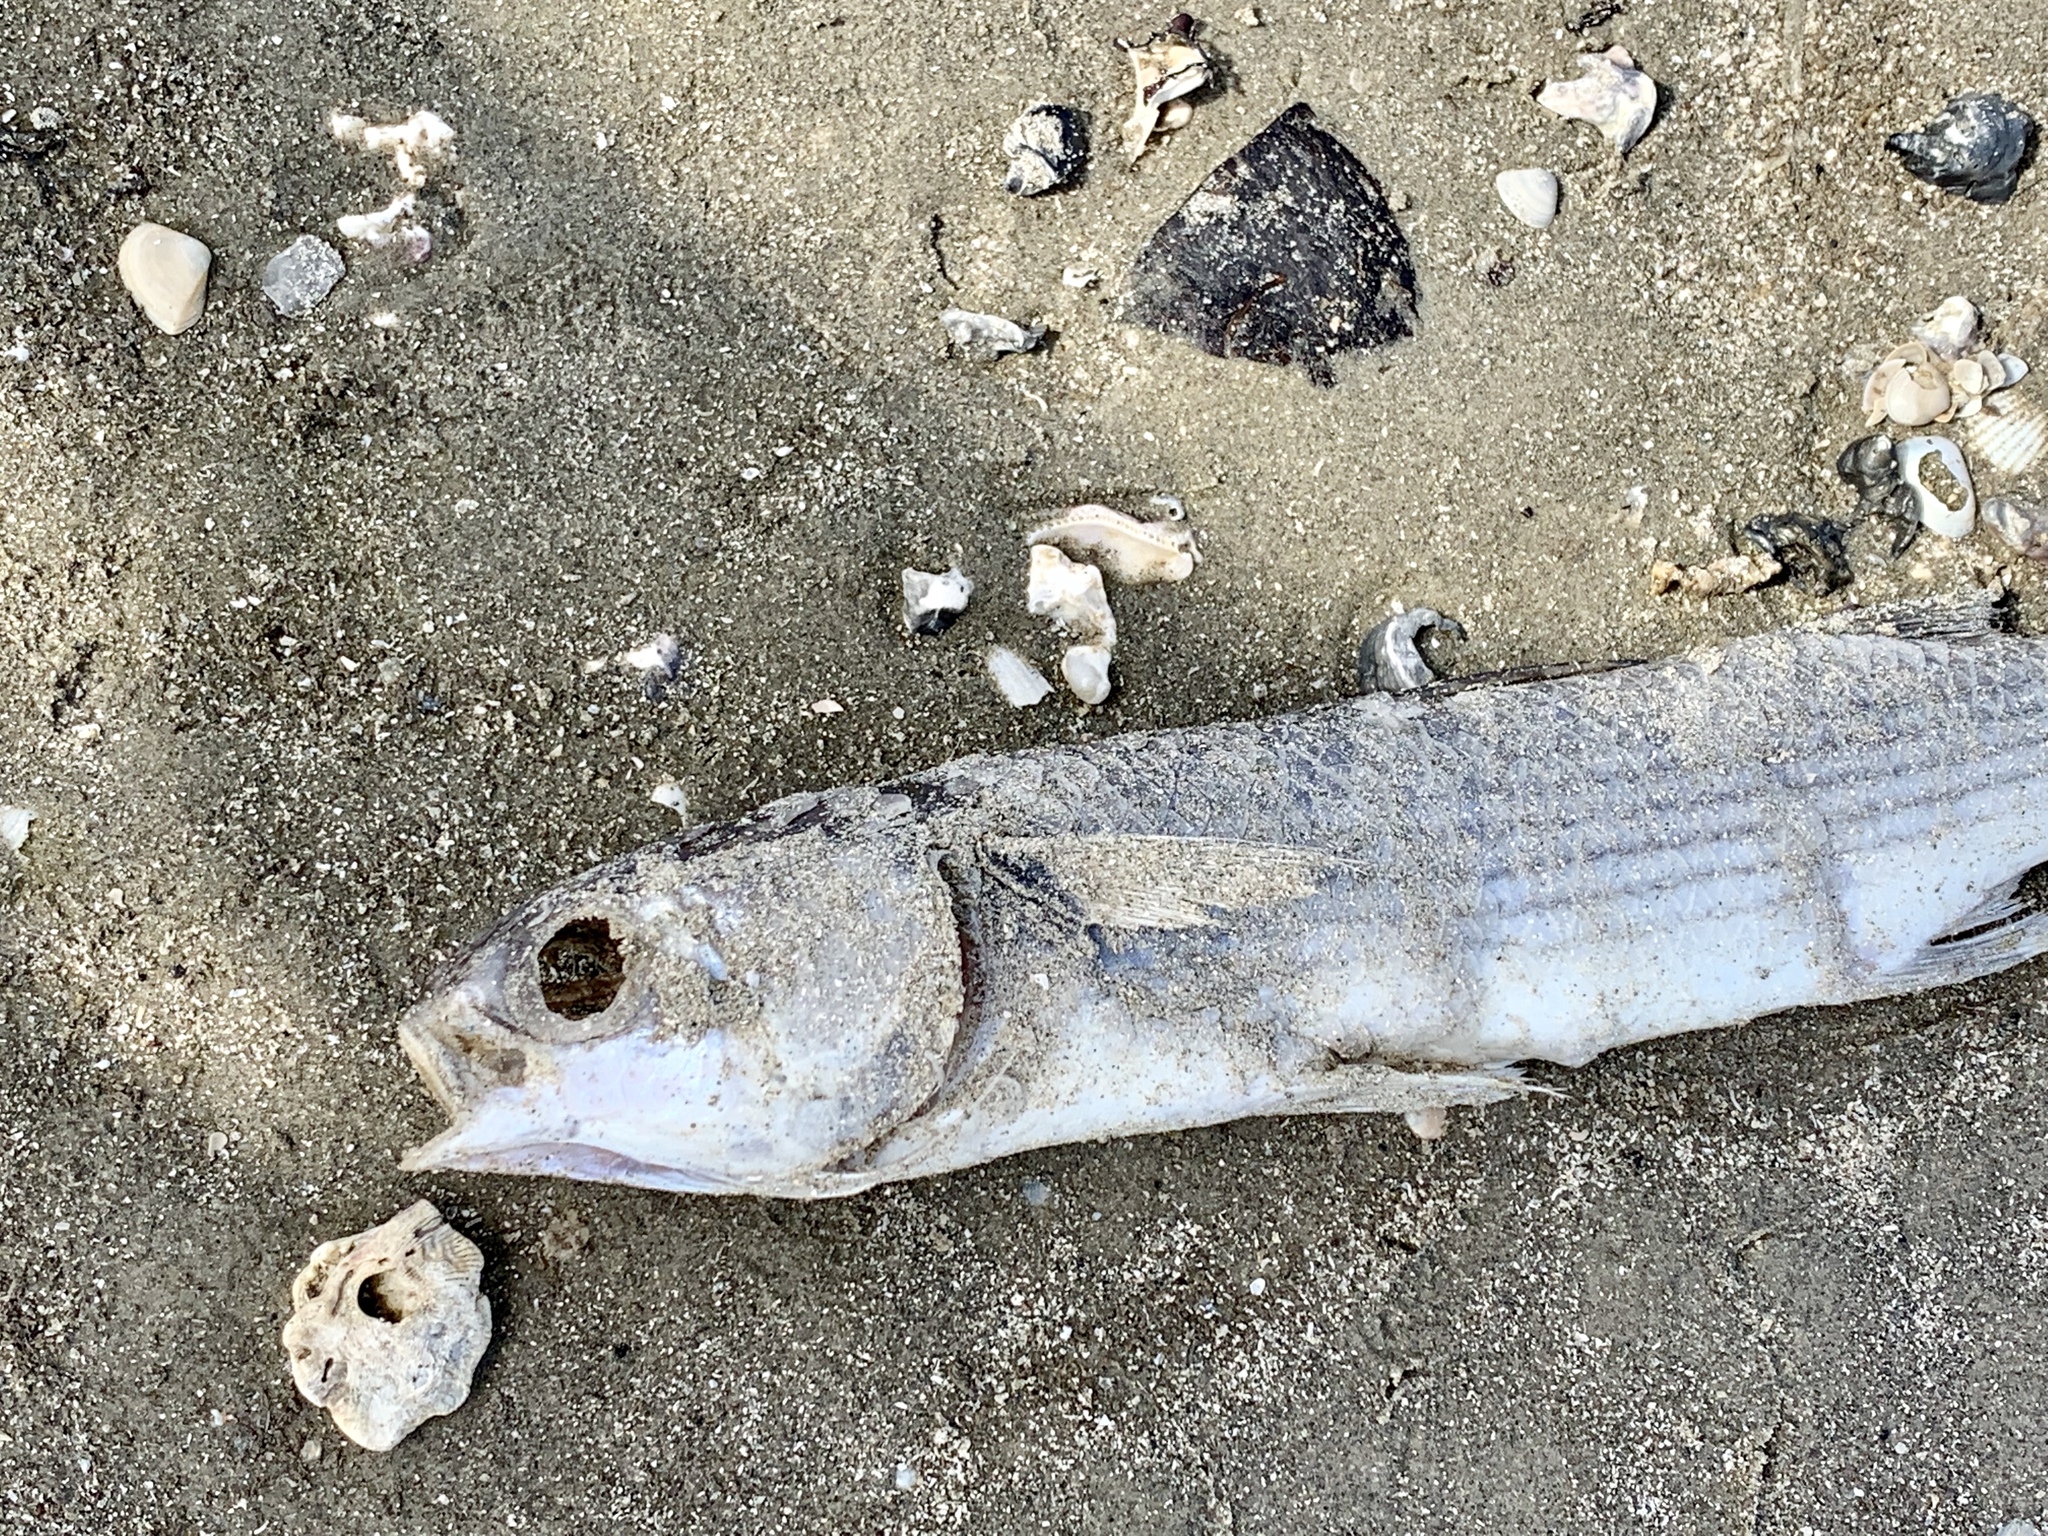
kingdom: Animalia
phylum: Chordata
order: Mugiliformes
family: Mugilidae
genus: Mugil
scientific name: Mugil cephalus
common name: Grey mullet
